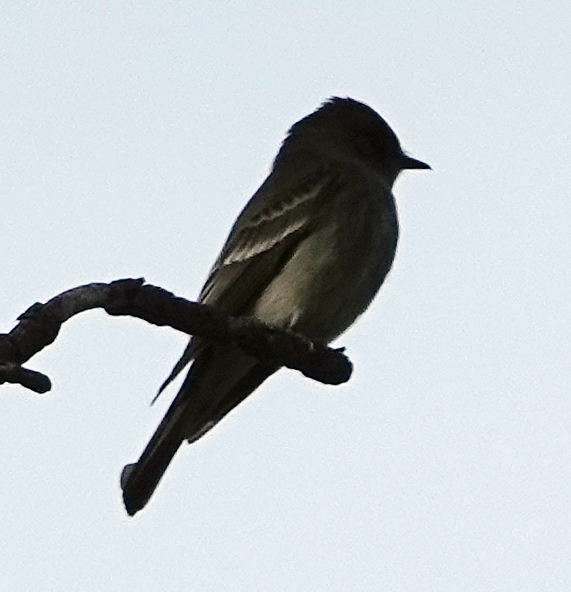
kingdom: Animalia
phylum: Chordata
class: Aves
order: Passeriformes
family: Tyrannidae
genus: Contopus
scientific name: Contopus sordidulus
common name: Western wood-pewee
